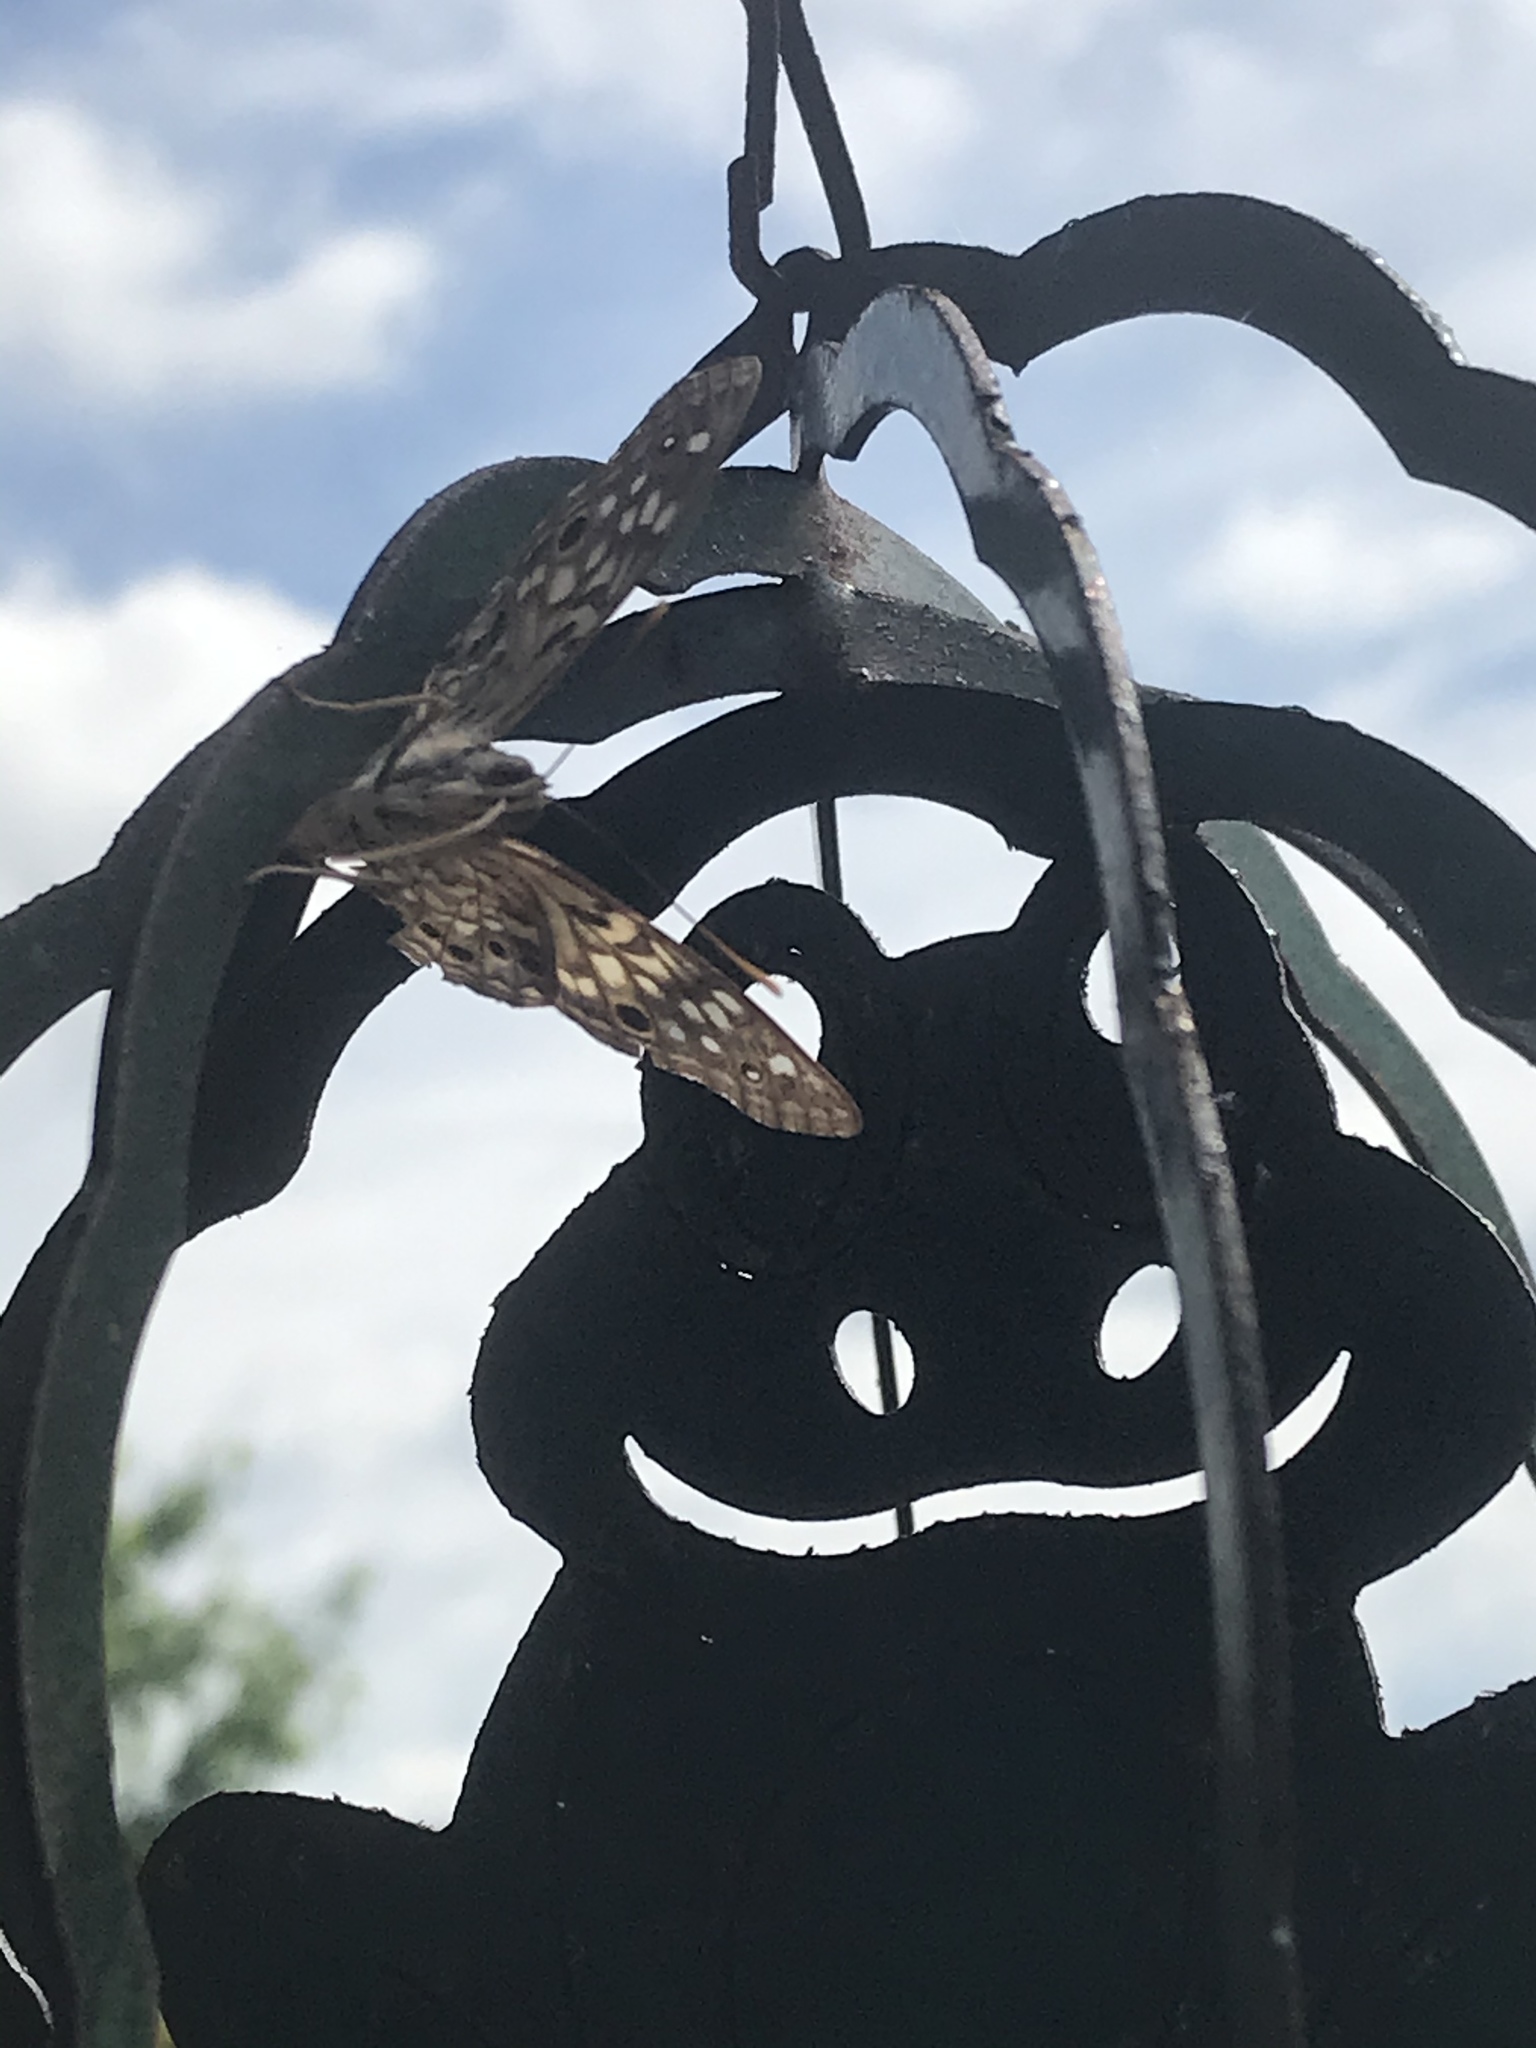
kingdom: Animalia
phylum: Arthropoda
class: Insecta
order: Lepidoptera
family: Nymphalidae
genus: Asterocampa
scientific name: Asterocampa celtis
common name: Hackberry emperor
